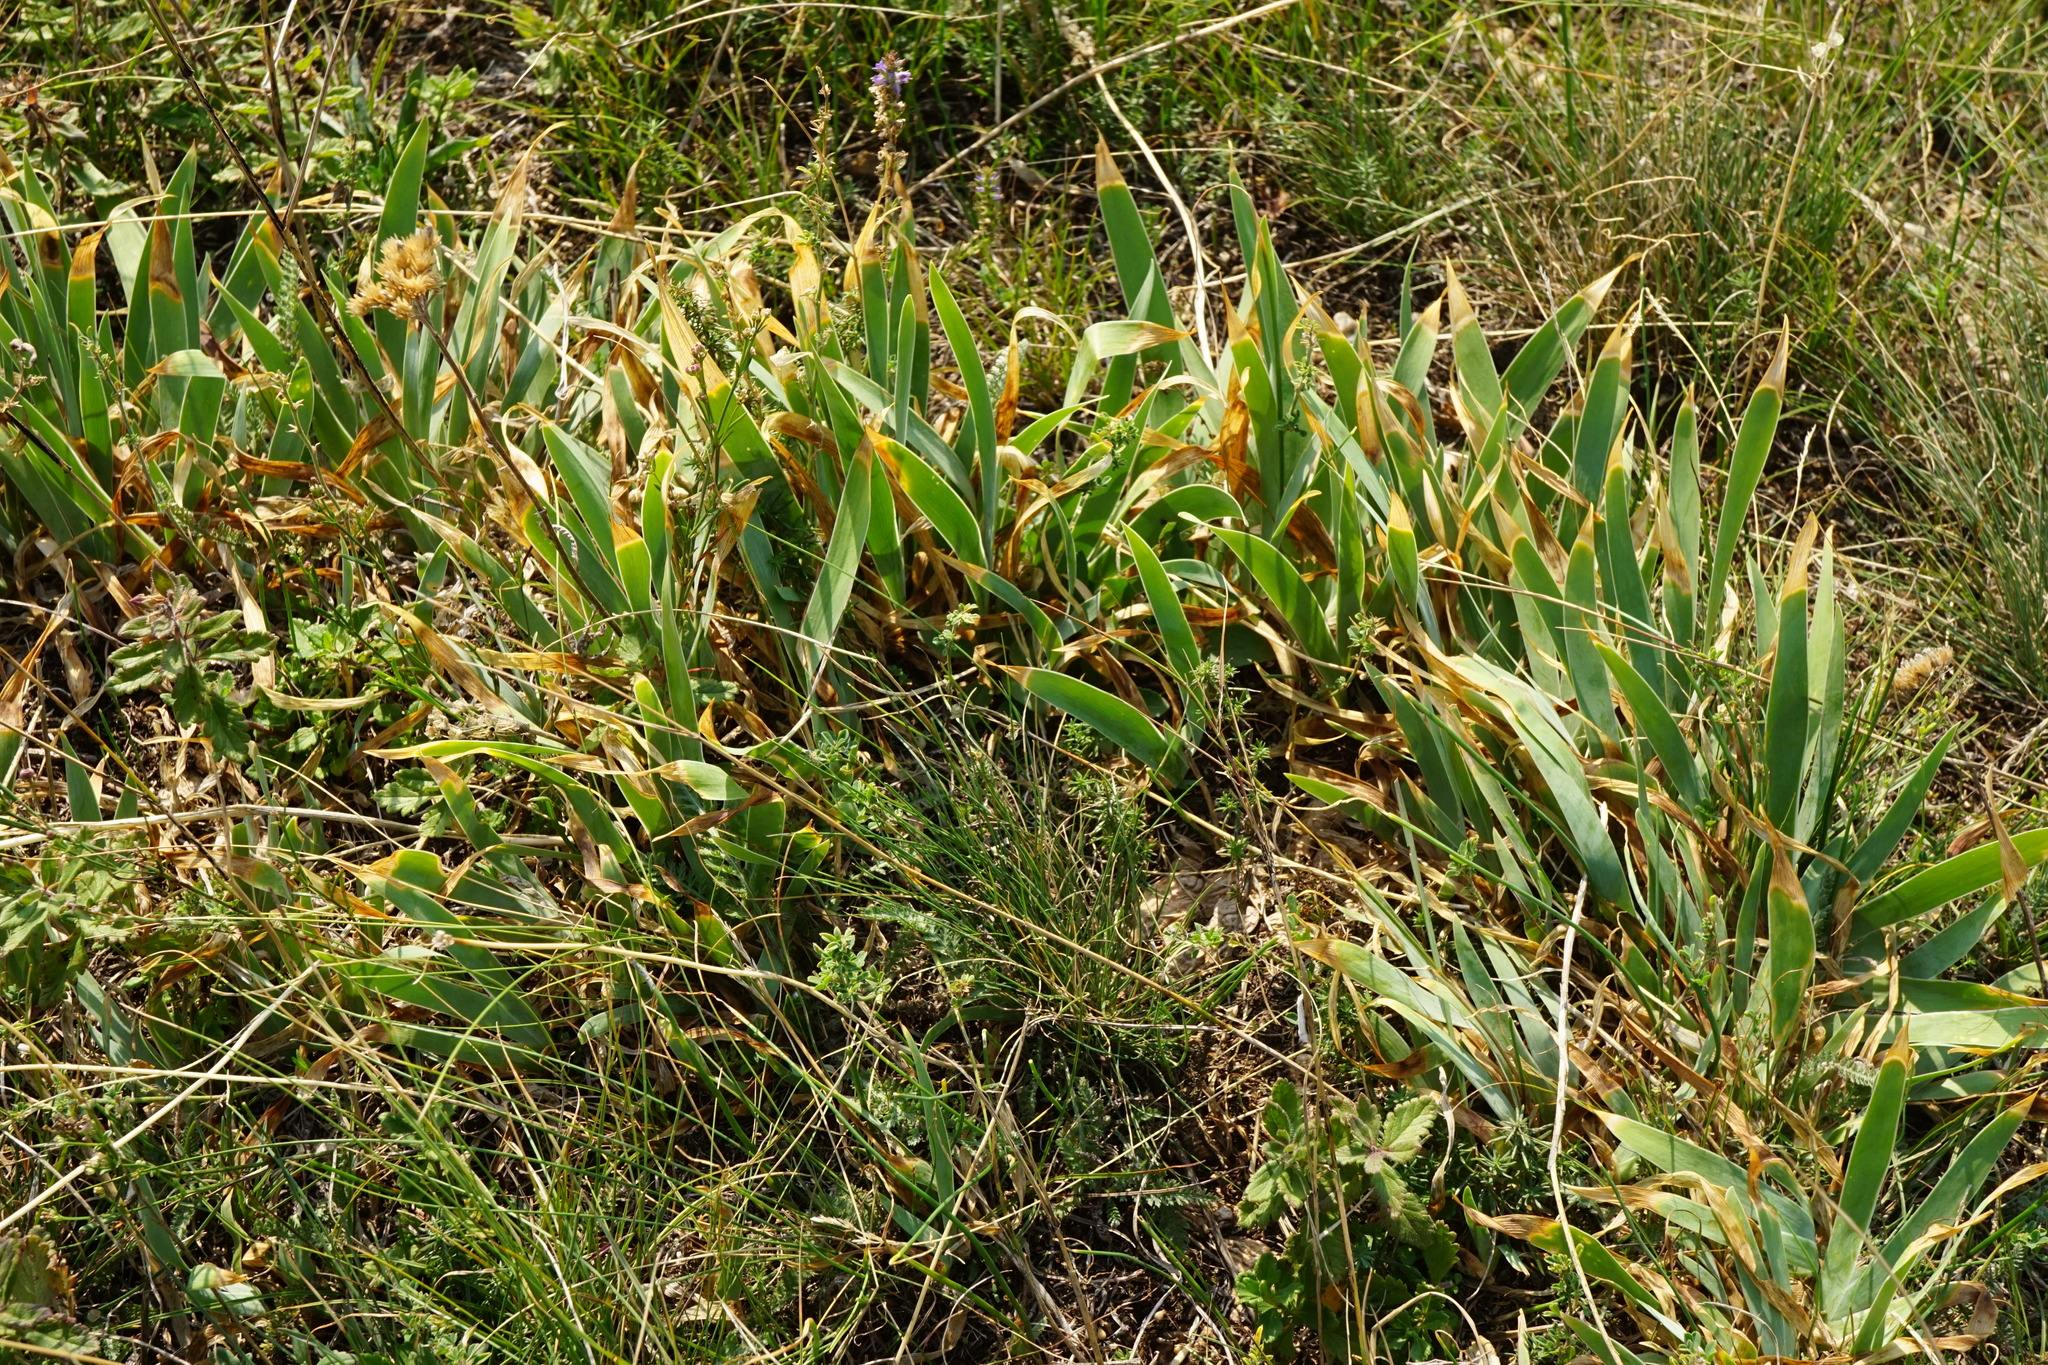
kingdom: Plantae
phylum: Tracheophyta
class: Liliopsida
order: Asparagales
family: Iridaceae
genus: Iris
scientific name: Iris pumila
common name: Dwarf iris
